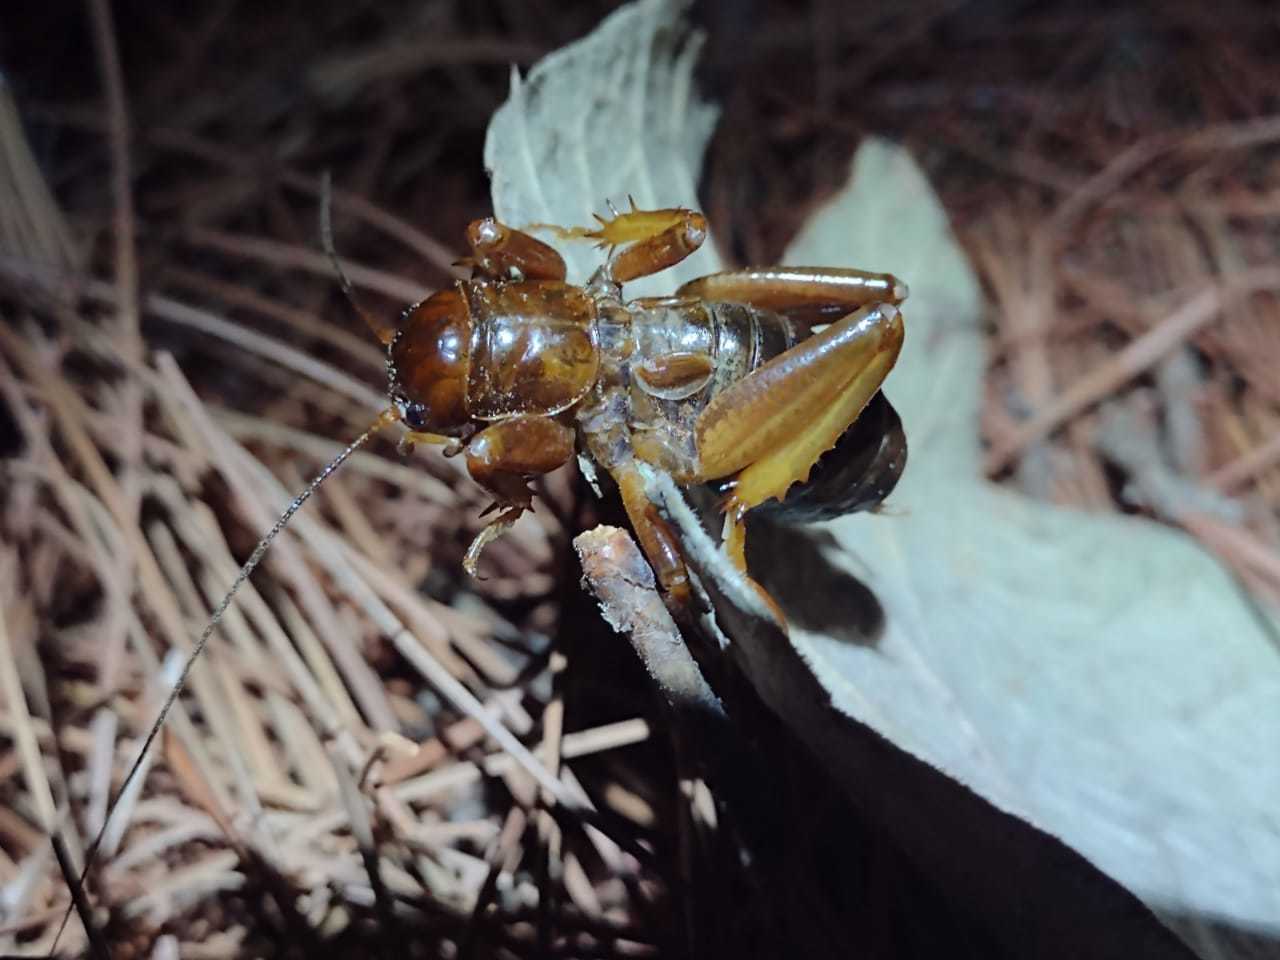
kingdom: Animalia
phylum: Arthropoda
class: Insecta
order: Orthoptera
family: Stenopelmatidae
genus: Stenopelmatus
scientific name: Stenopelmatus piceiventris
